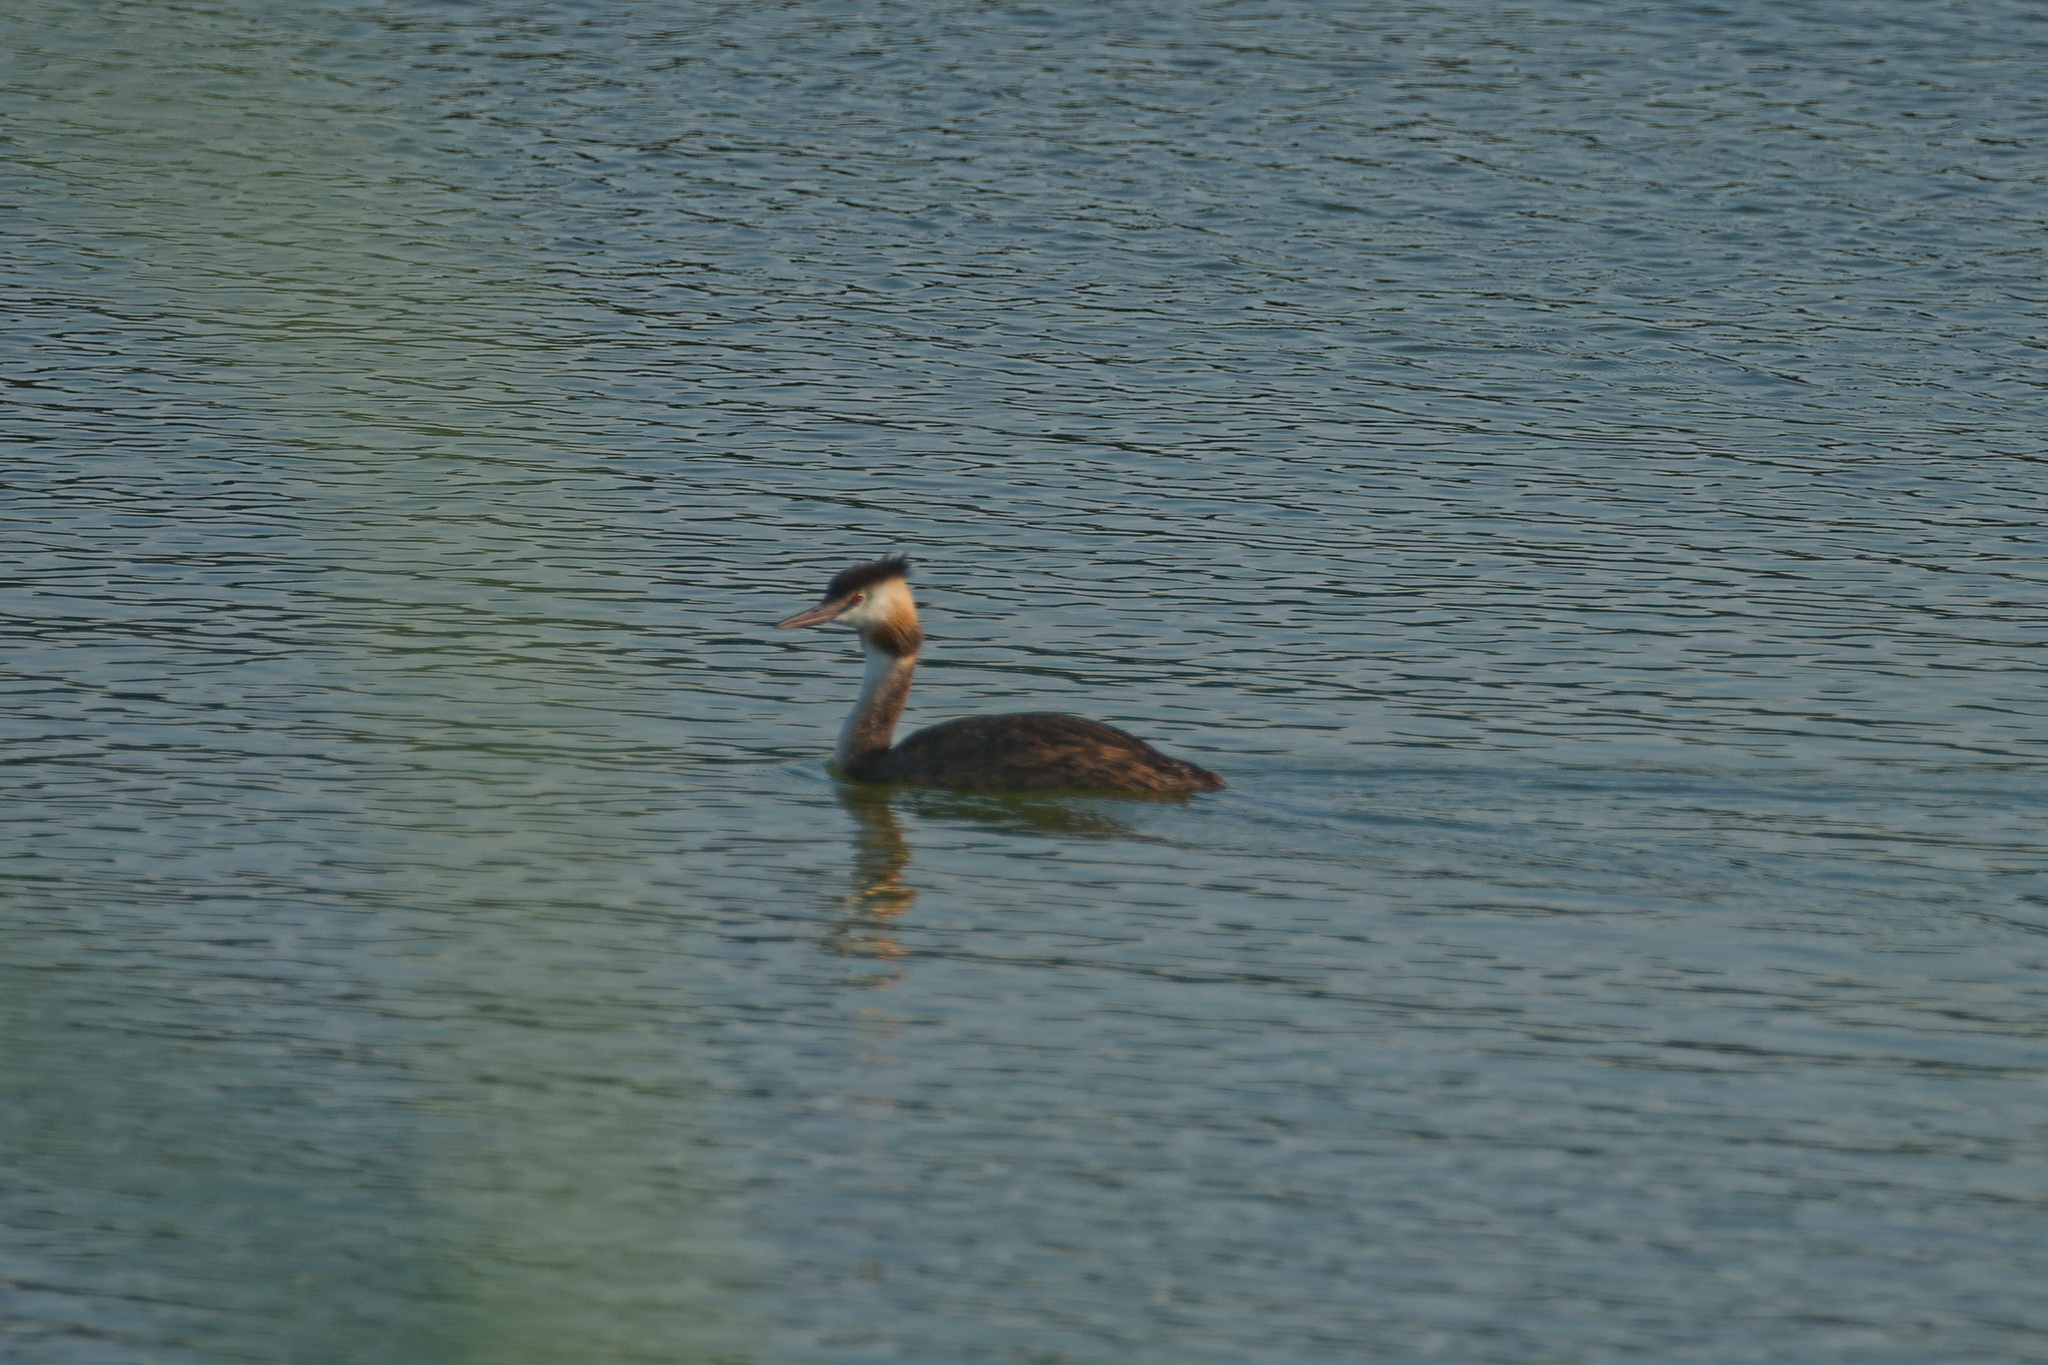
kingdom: Animalia
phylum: Chordata
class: Aves
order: Podicipediformes
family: Podicipedidae
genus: Podiceps
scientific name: Podiceps cristatus
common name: Great crested grebe
